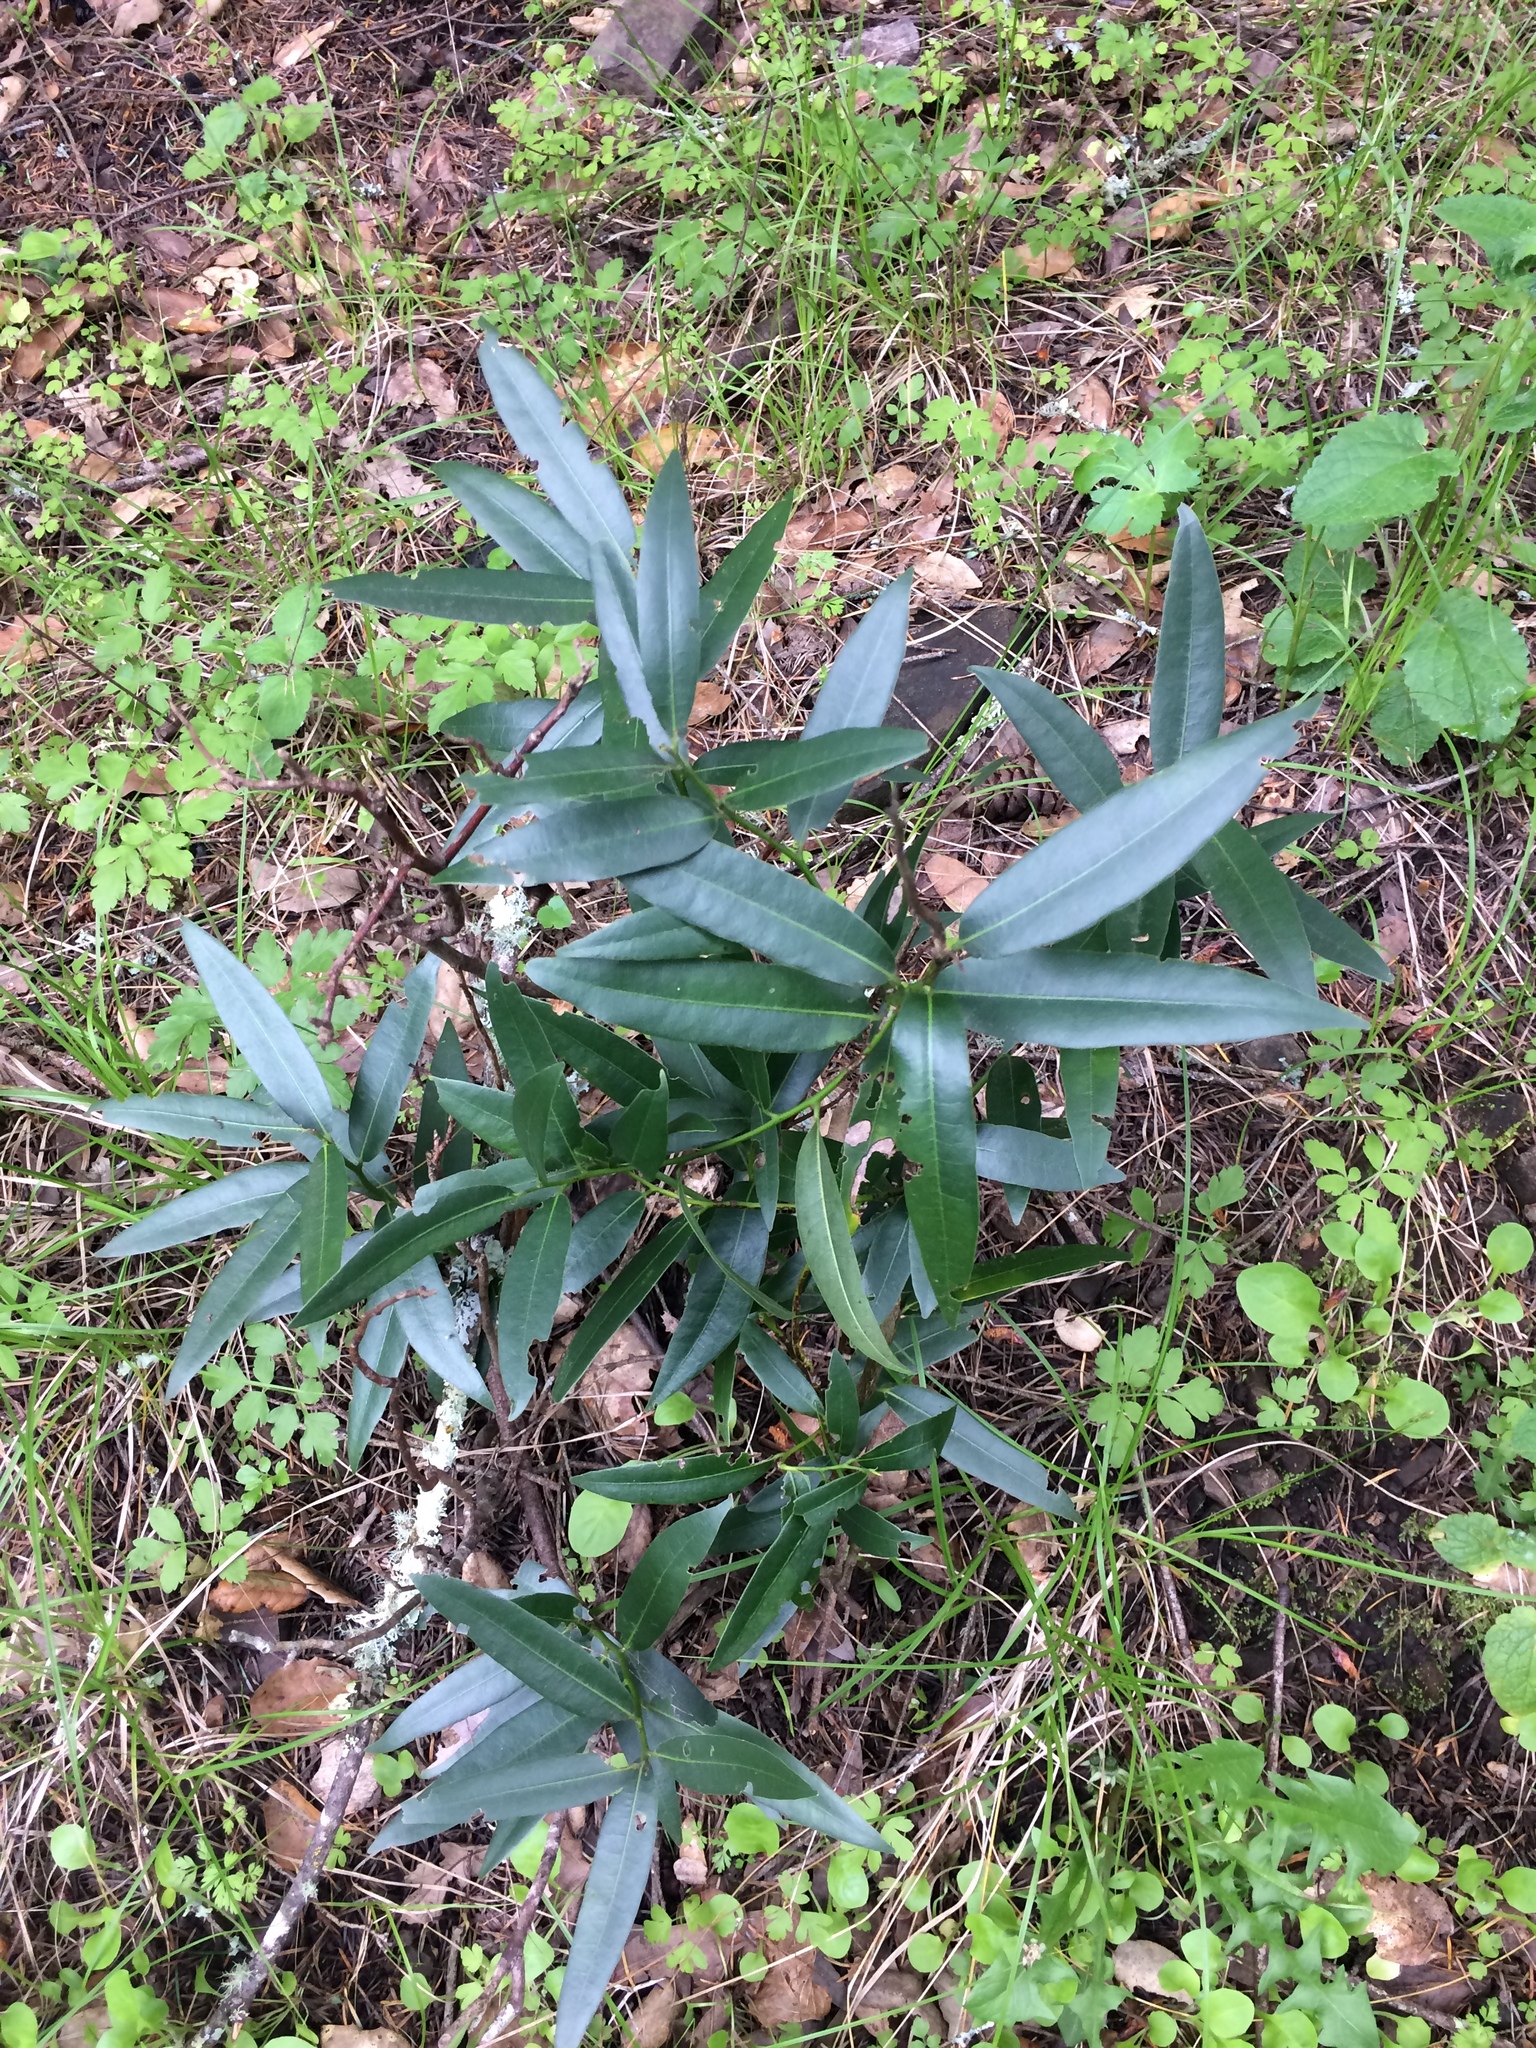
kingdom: Plantae
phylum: Tracheophyta
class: Magnoliopsida
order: Laurales
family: Lauraceae
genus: Umbellularia
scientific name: Umbellularia californica
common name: California bay
